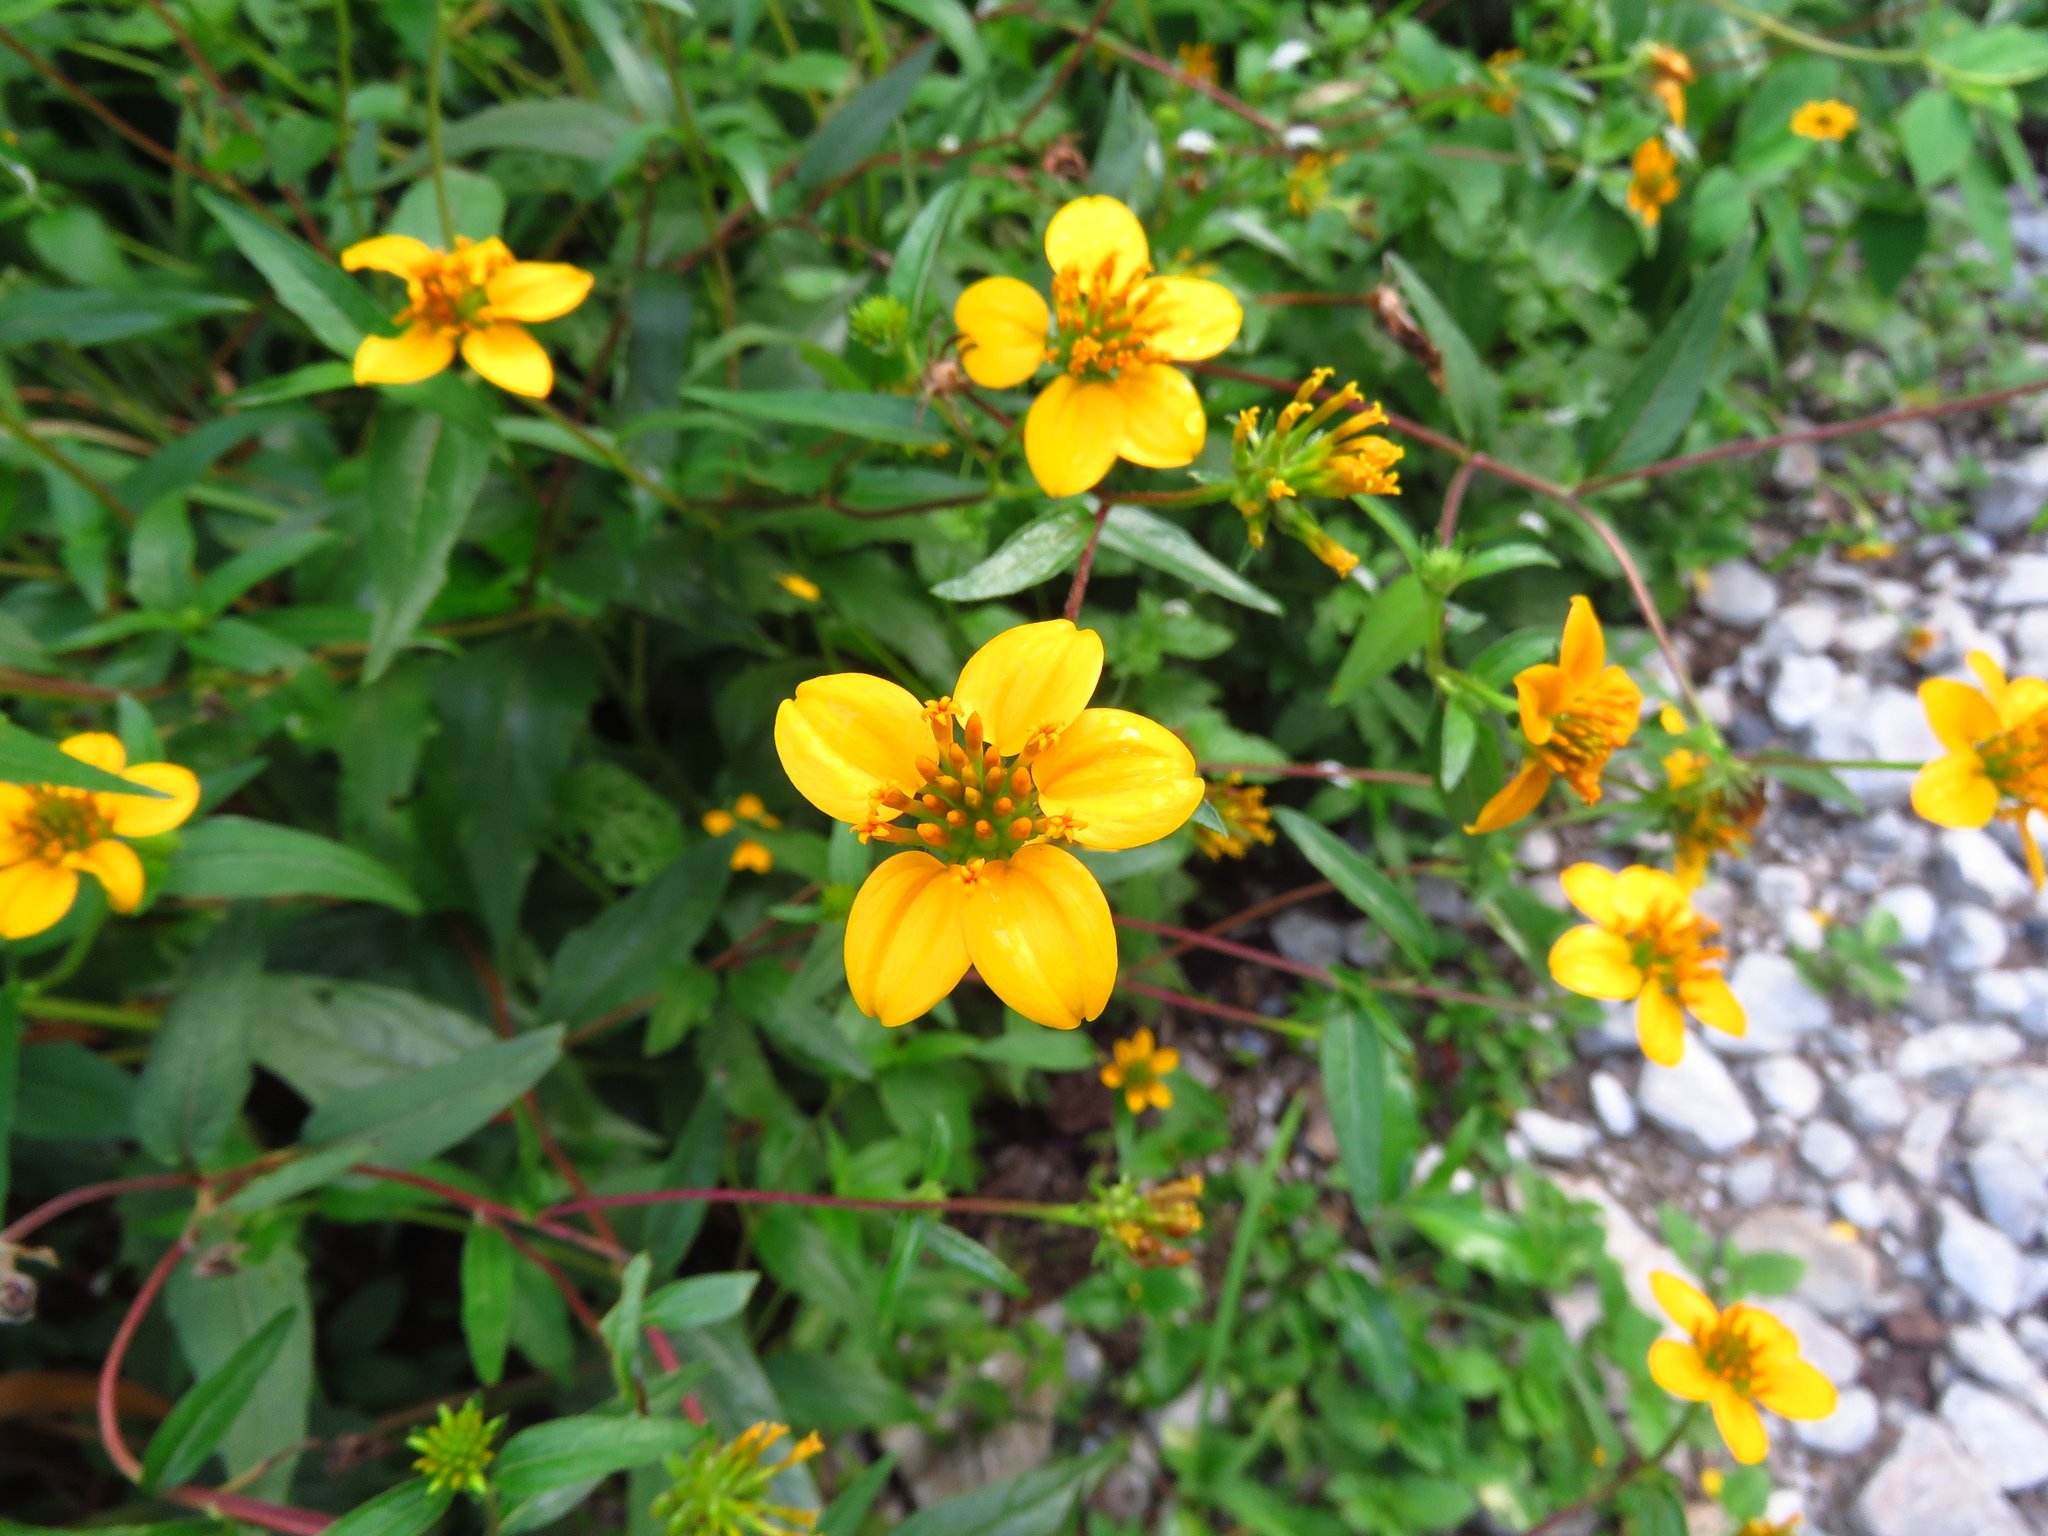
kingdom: Plantae
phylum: Tracheophyta
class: Magnoliopsida
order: Asterales
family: Asteraceae
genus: Sclerocarpus
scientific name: Sclerocarpus uniserialis
